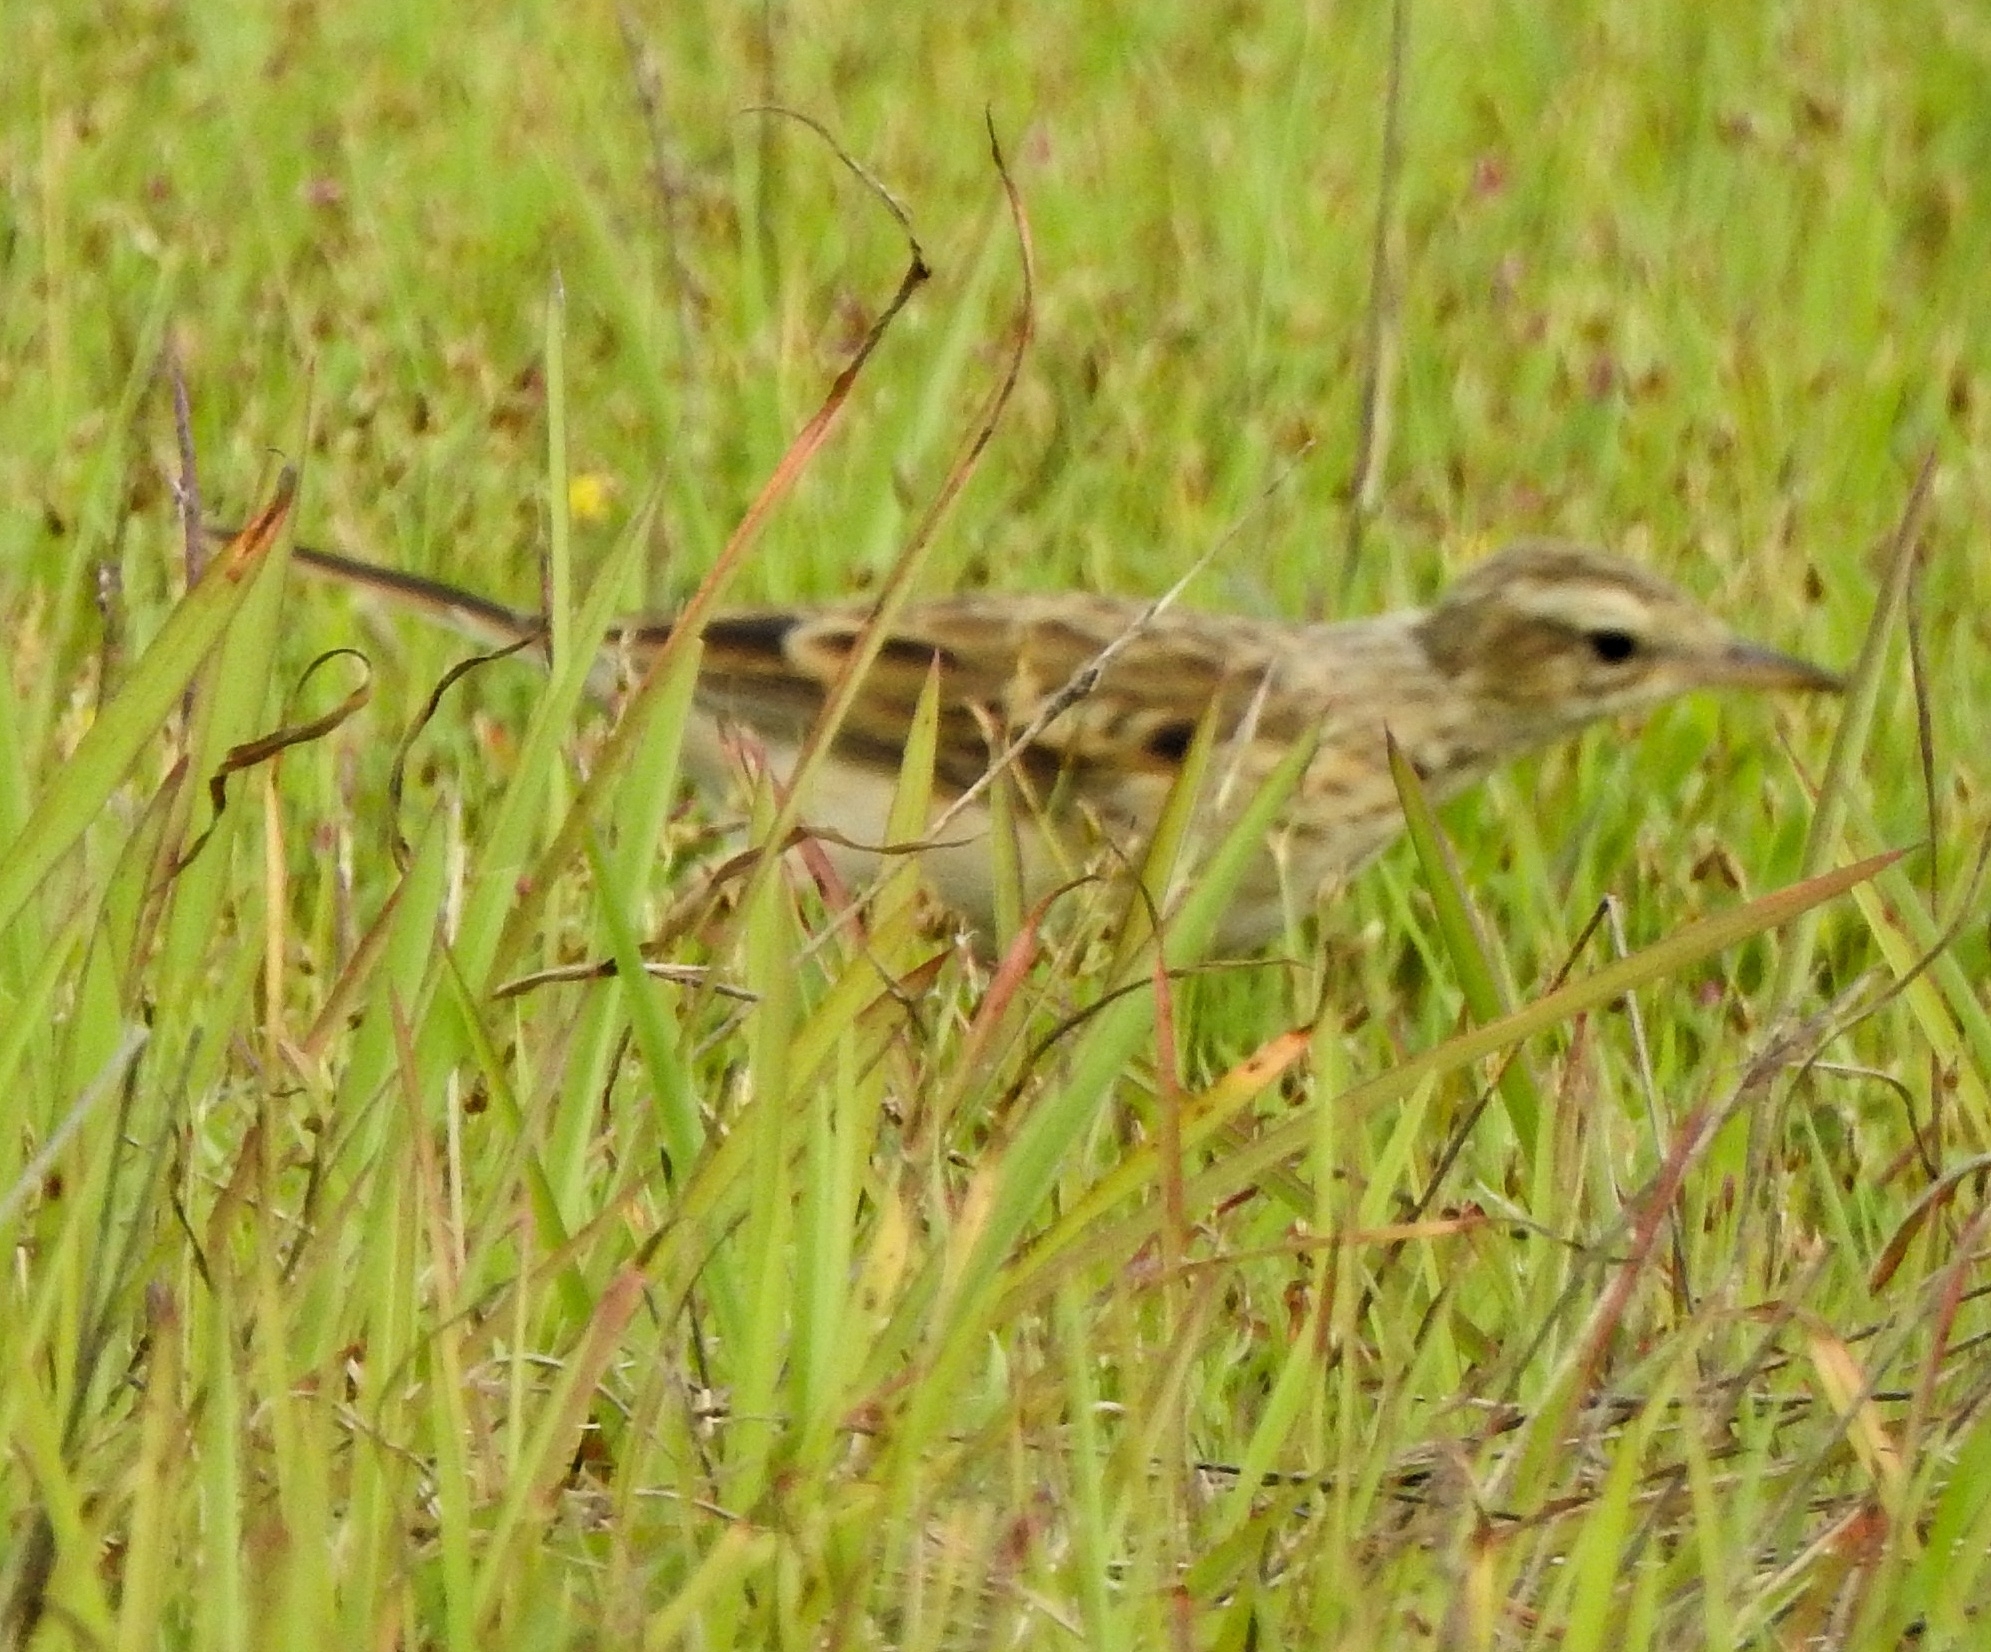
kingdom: Animalia
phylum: Chordata
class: Aves
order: Passeriformes
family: Motacillidae
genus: Anthus
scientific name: Anthus rufulus
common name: Paddyfield pipit
